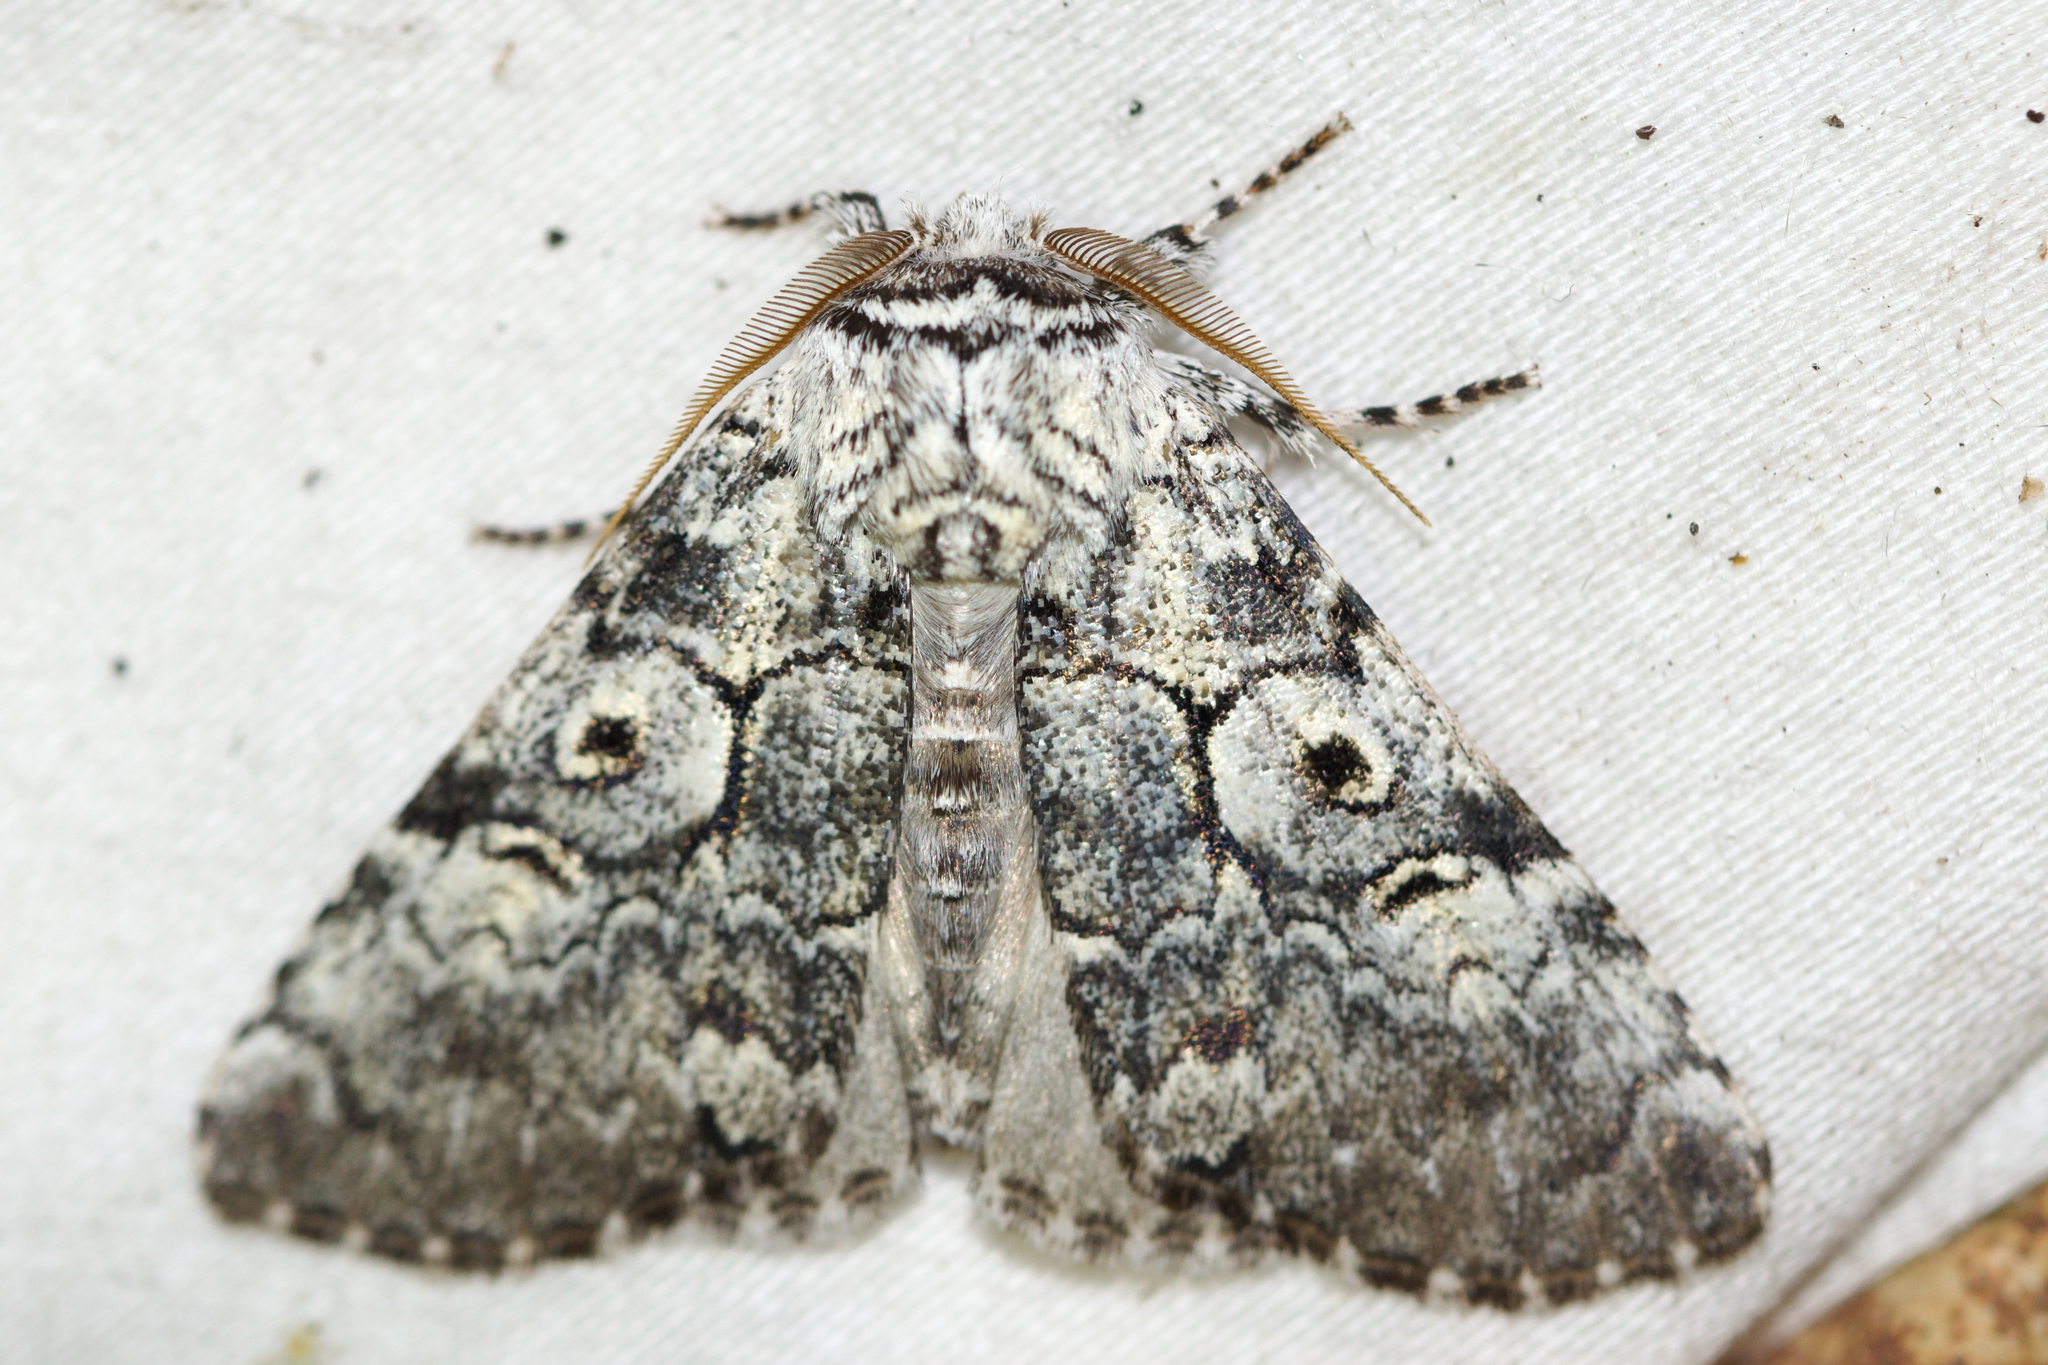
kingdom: Animalia
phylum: Arthropoda
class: Insecta
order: Lepidoptera
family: Noctuidae
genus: Charadra
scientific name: Charadra deridens
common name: Marbled tuffet
